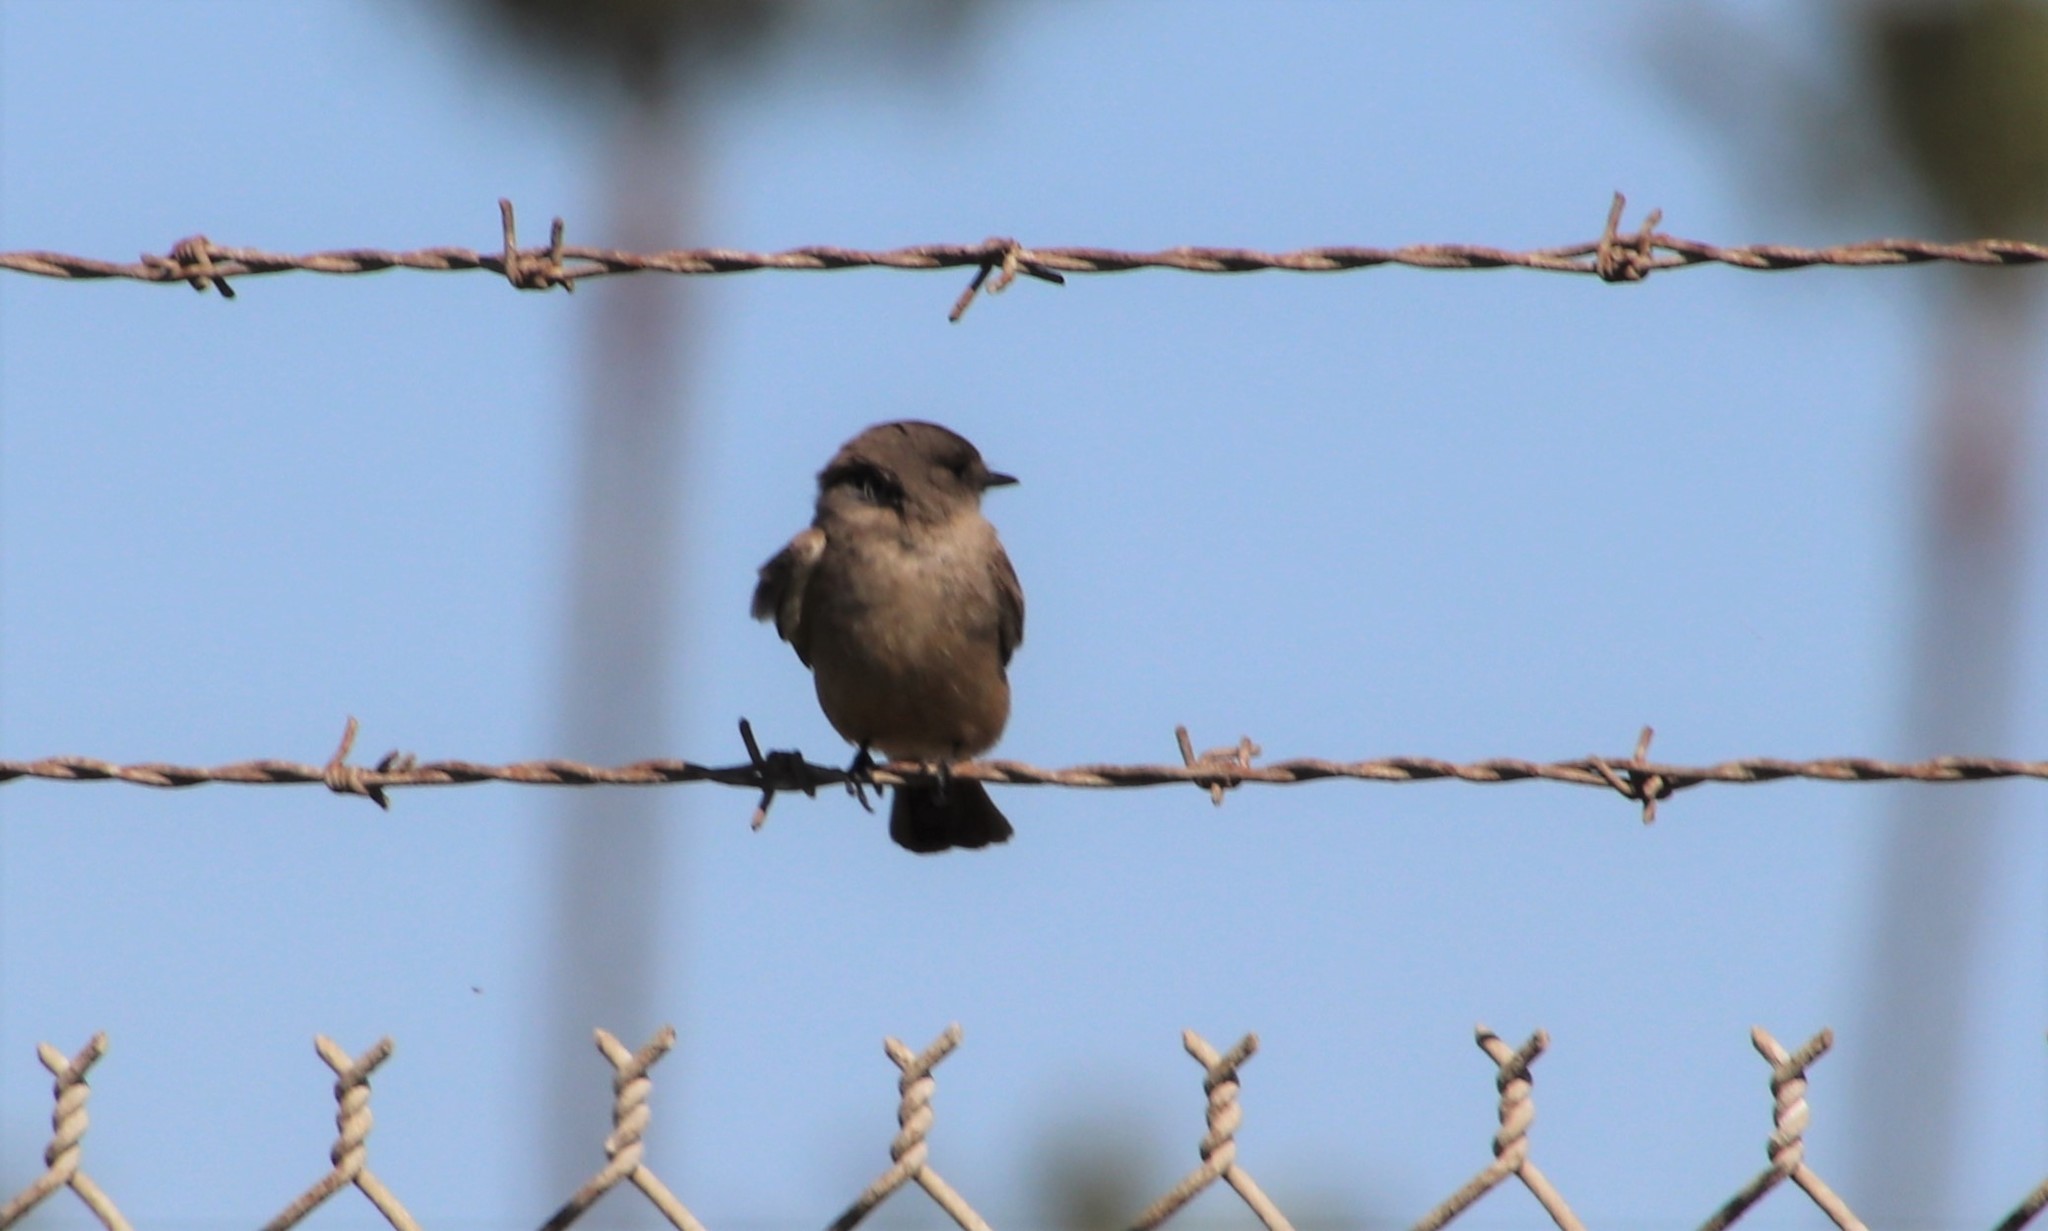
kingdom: Animalia
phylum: Chordata
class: Aves
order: Passeriformes
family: Tyrannidae
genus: Sayornis
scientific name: Sayornis saya
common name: Say's phoebe
